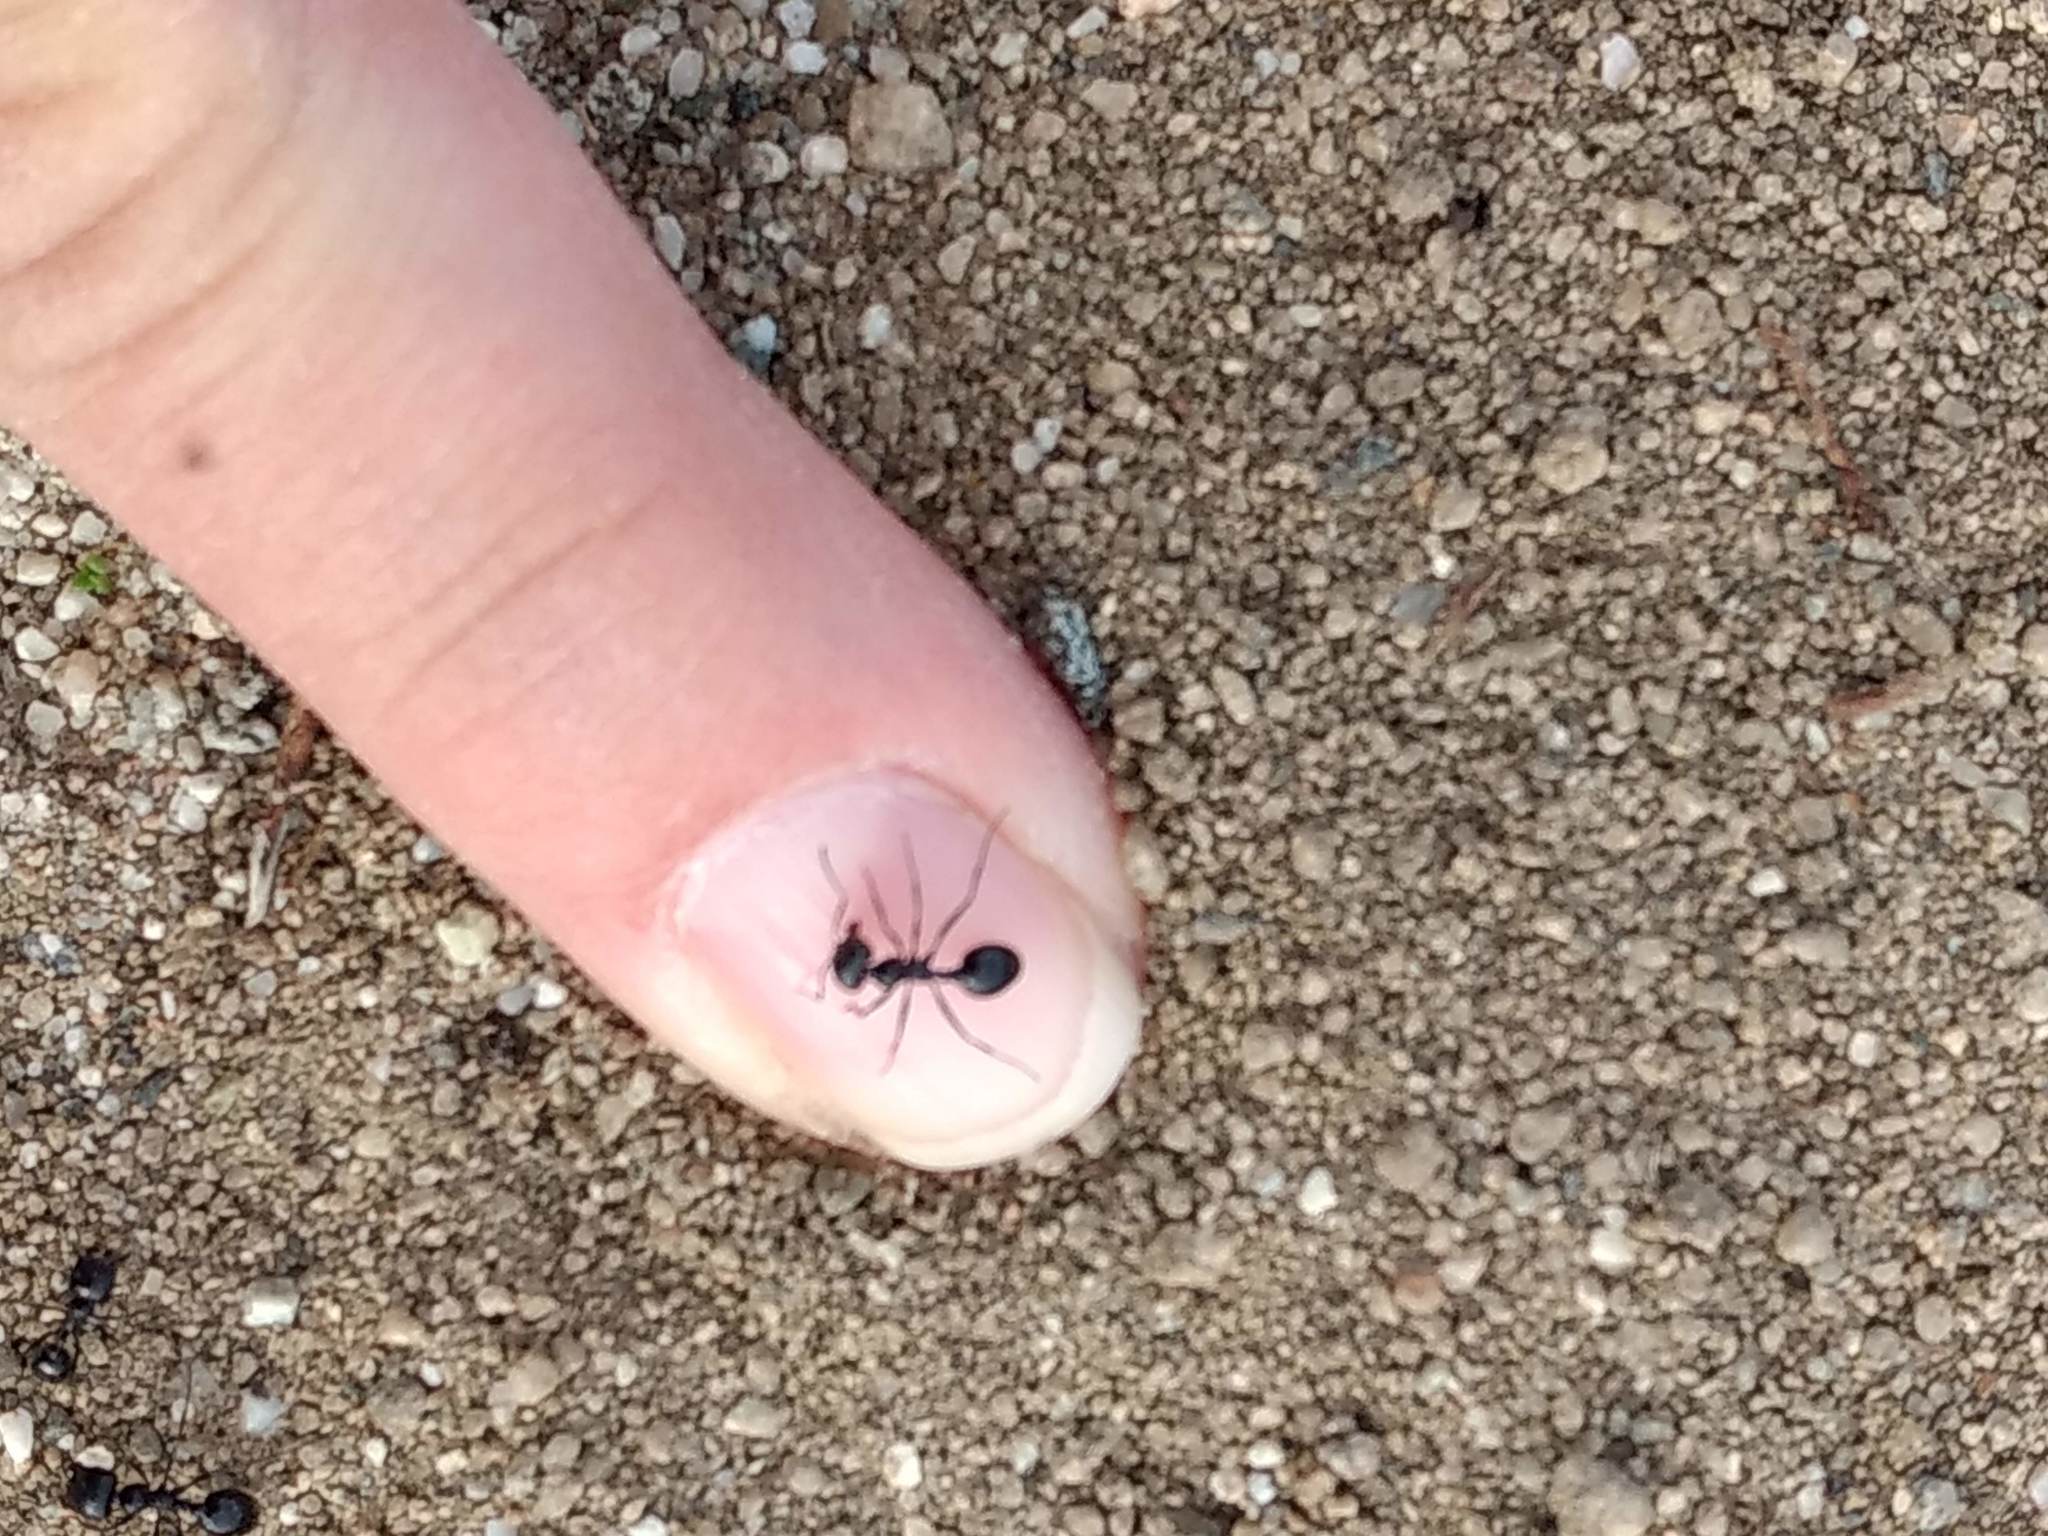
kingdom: Animalia
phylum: Arthropoda
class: Insecta
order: Hymenoptera
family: Formicidae
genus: Messor
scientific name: Messor pergandei
